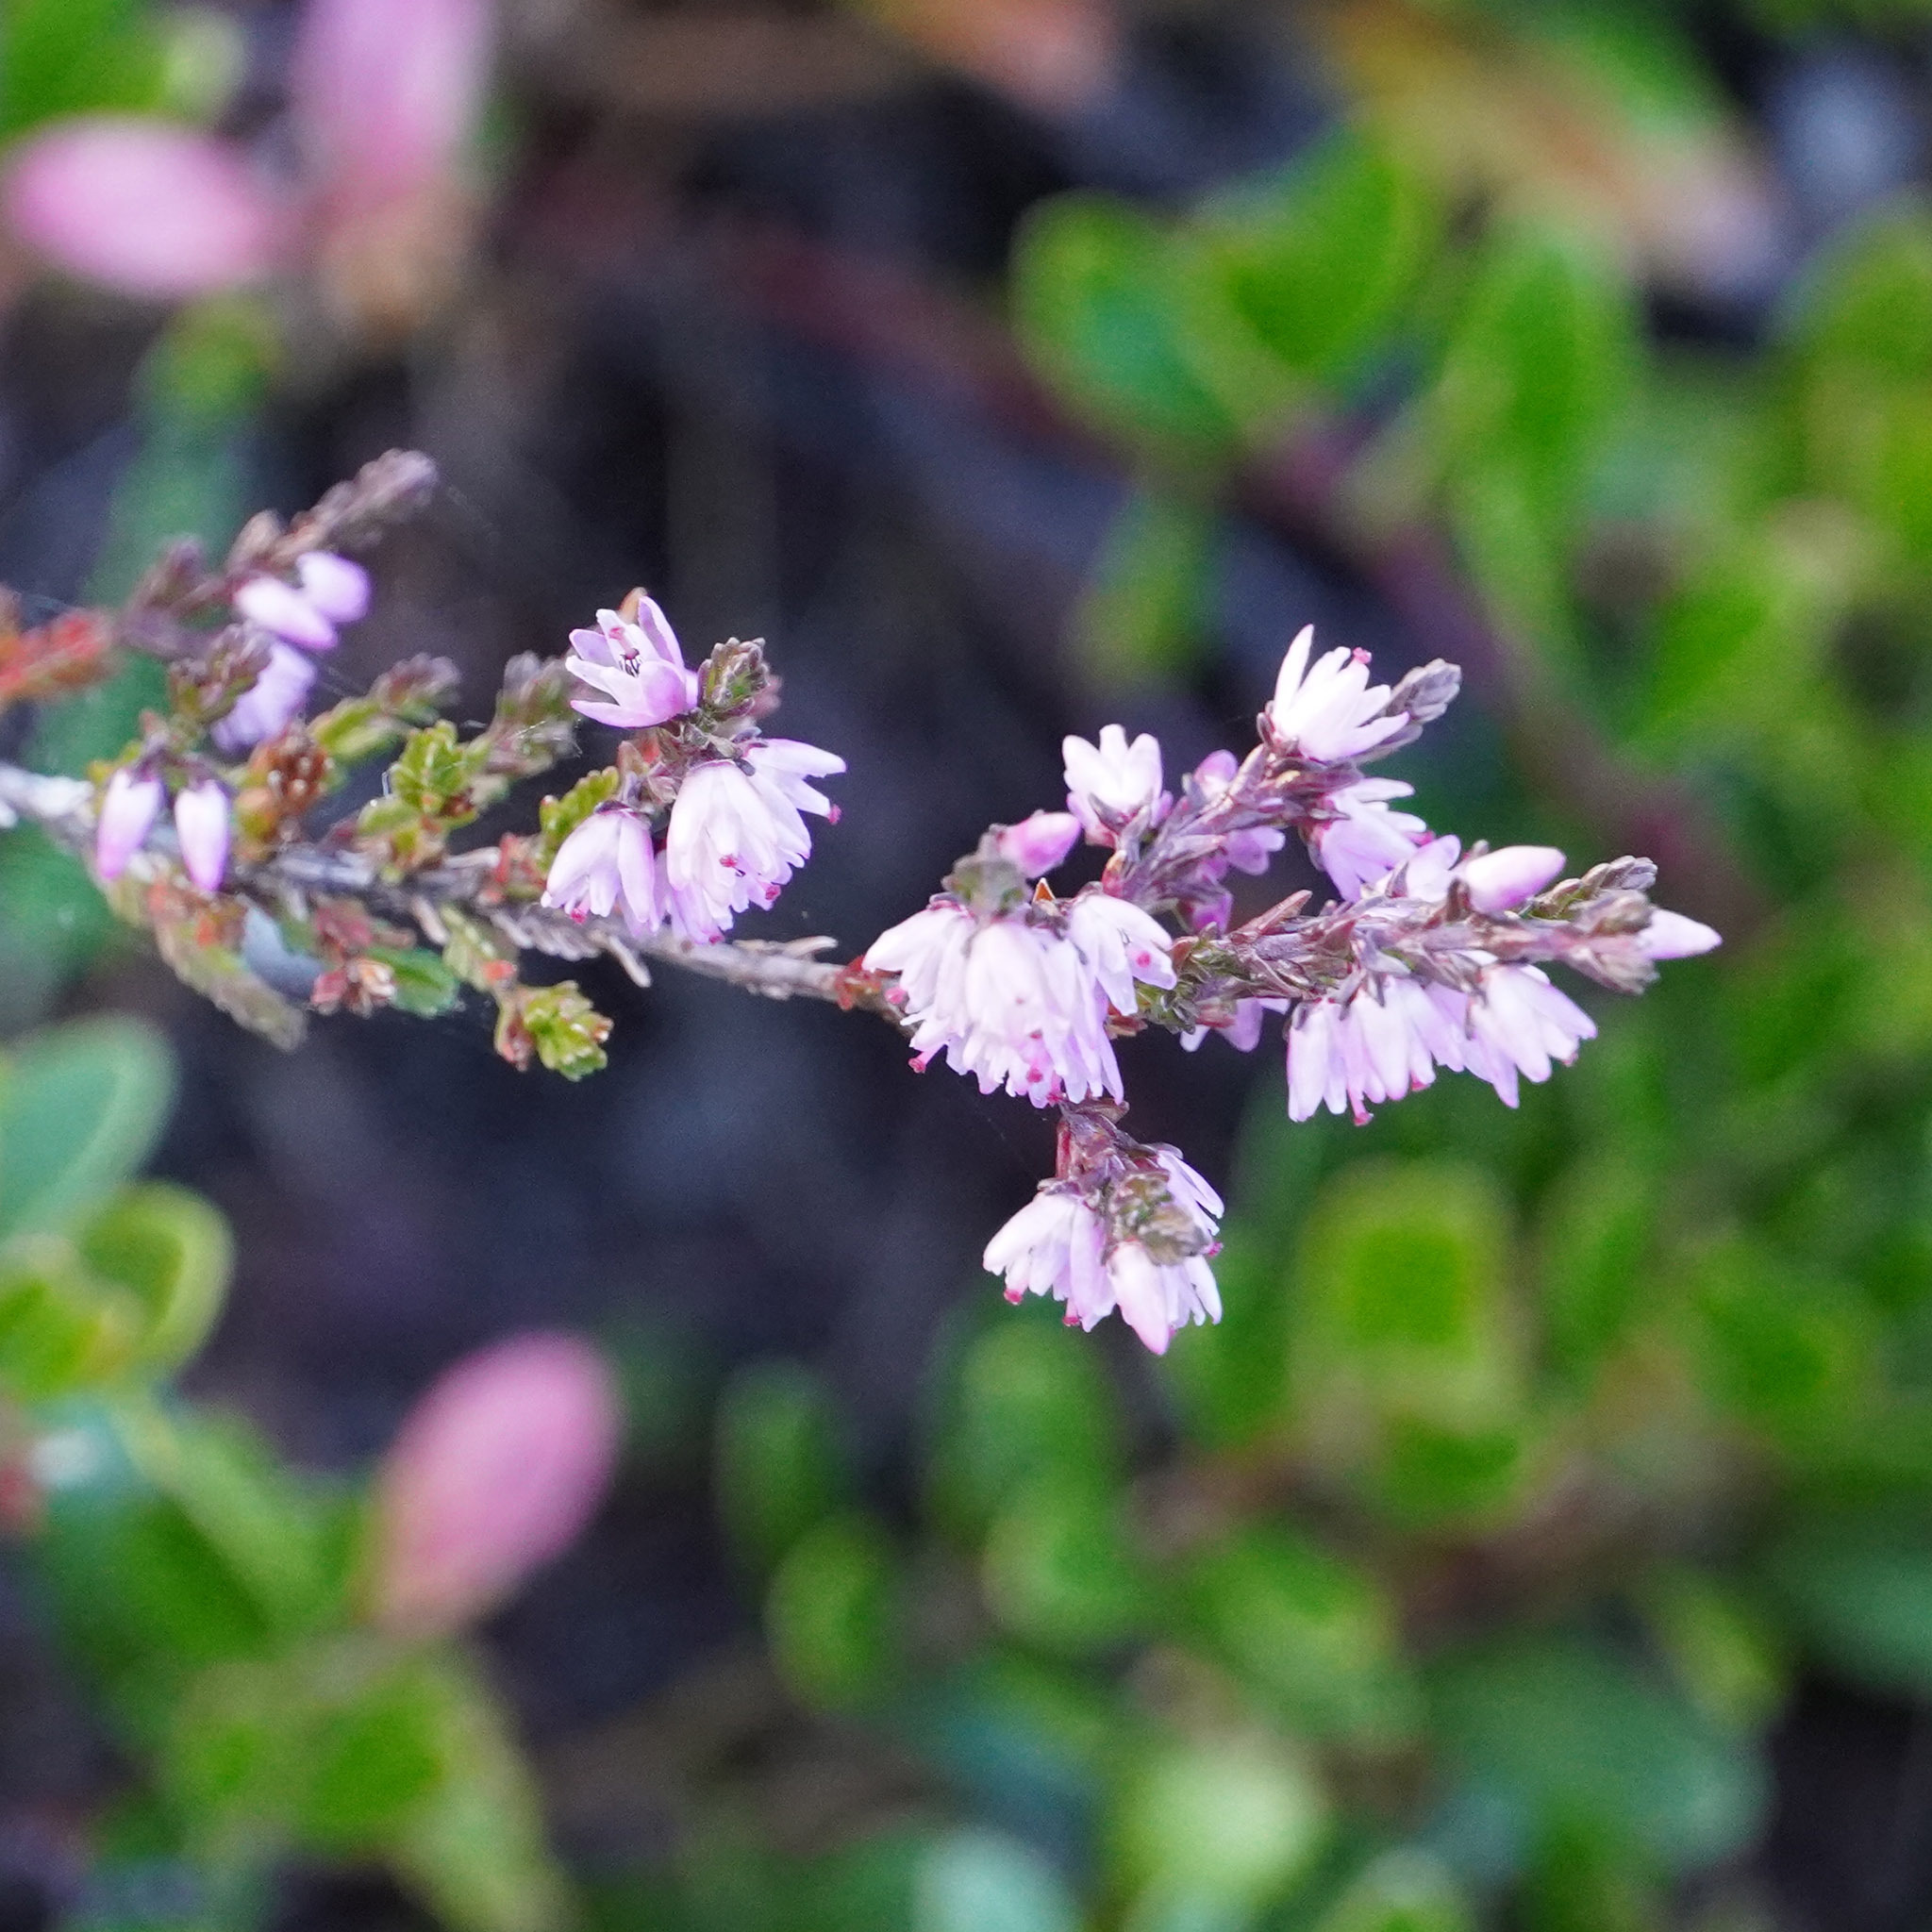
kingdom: Plantae
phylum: Tracheophyta
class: Magnoliopsida
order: Ericales
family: Ericaceae
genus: Calluna
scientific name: Calluna vulgaris
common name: Heather
